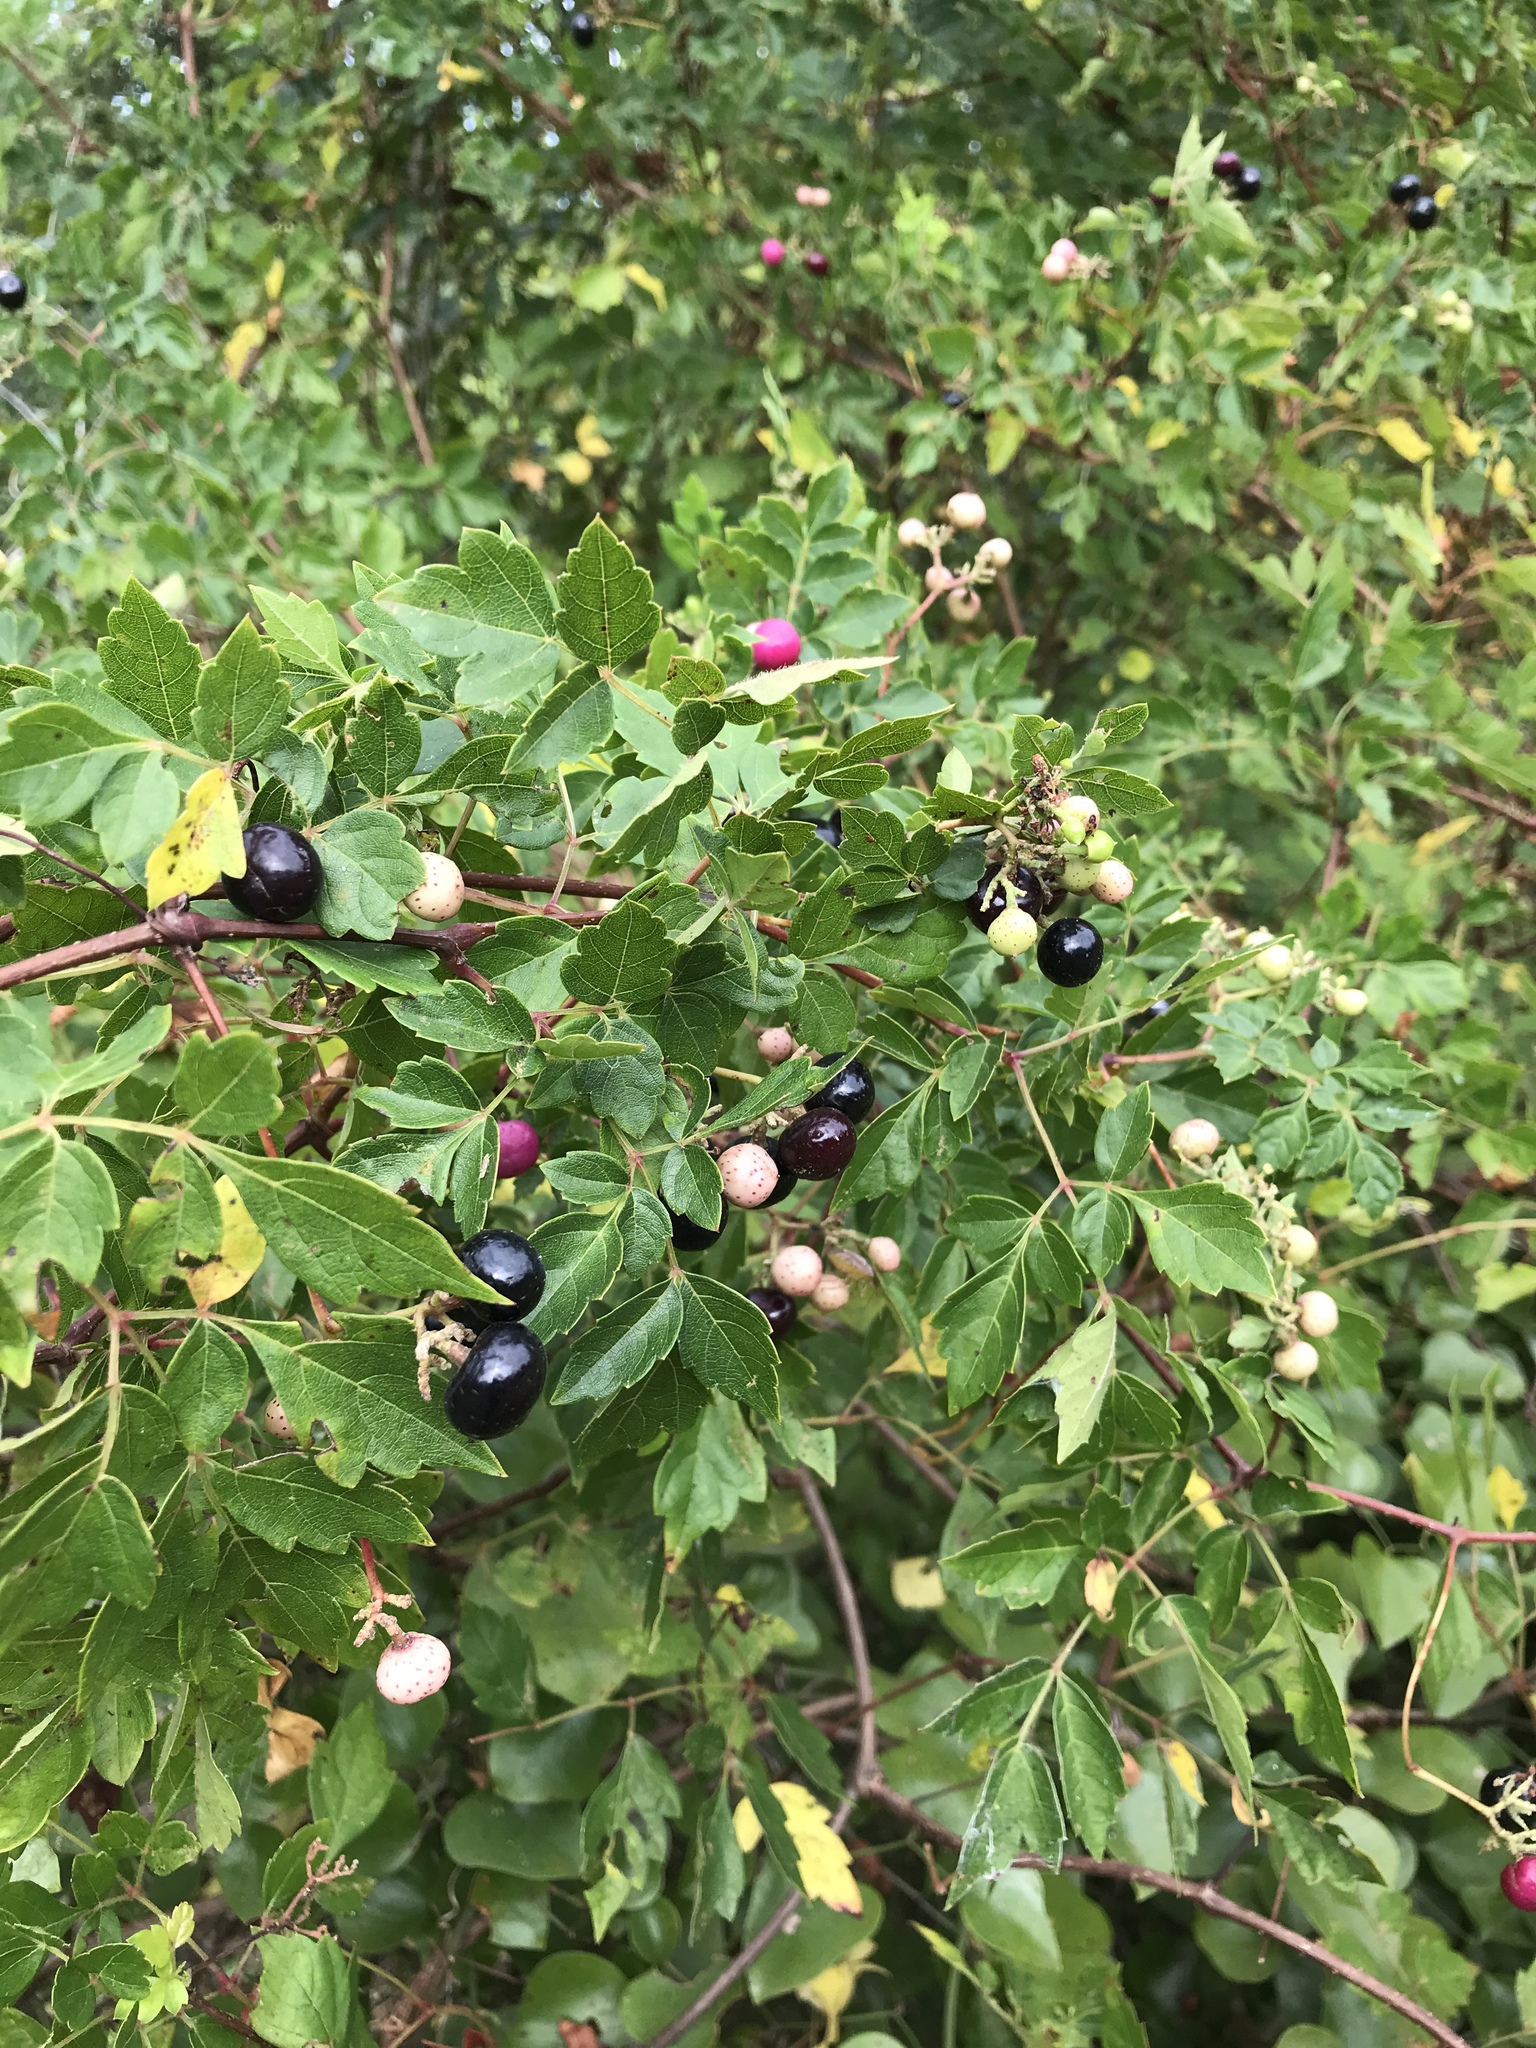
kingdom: Plantae
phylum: Tracheophyta
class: Magnoliopsida
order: Vitales
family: Vitaceae
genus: Nekemias
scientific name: Nekemias arborea
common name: Peppervine
